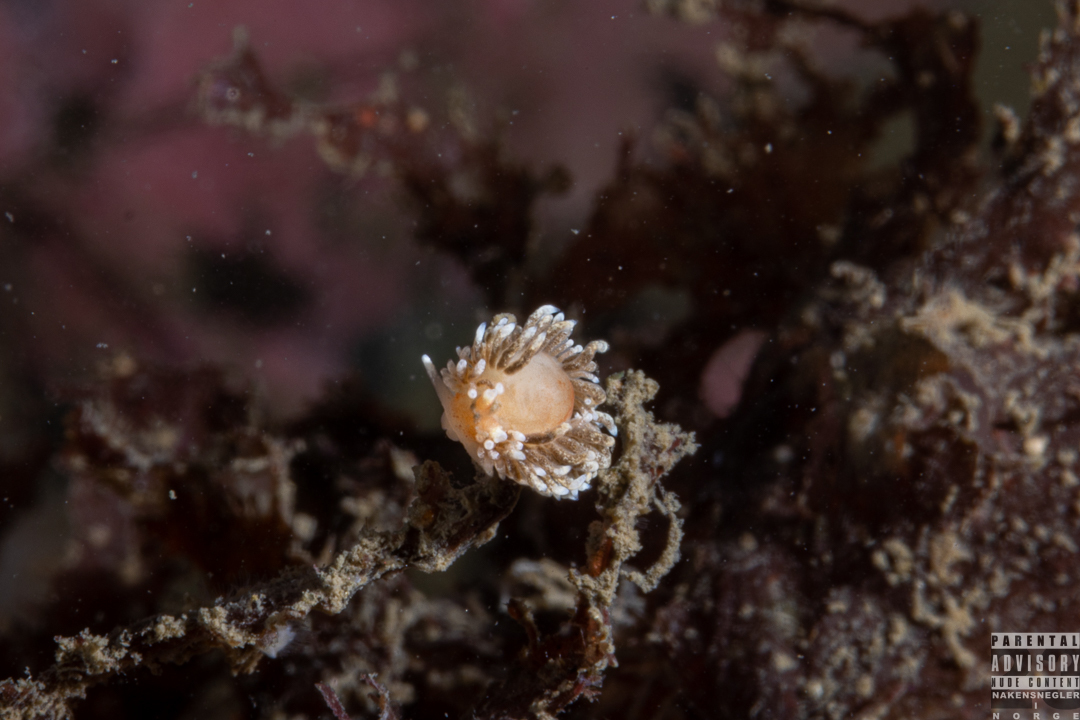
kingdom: Animalia
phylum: Mollusca
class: Gastropoda
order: Nudibranchia
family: Aeolidiidae
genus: Aeolidiella
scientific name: Aeolidiella glauca
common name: Orange-brown aeolid
